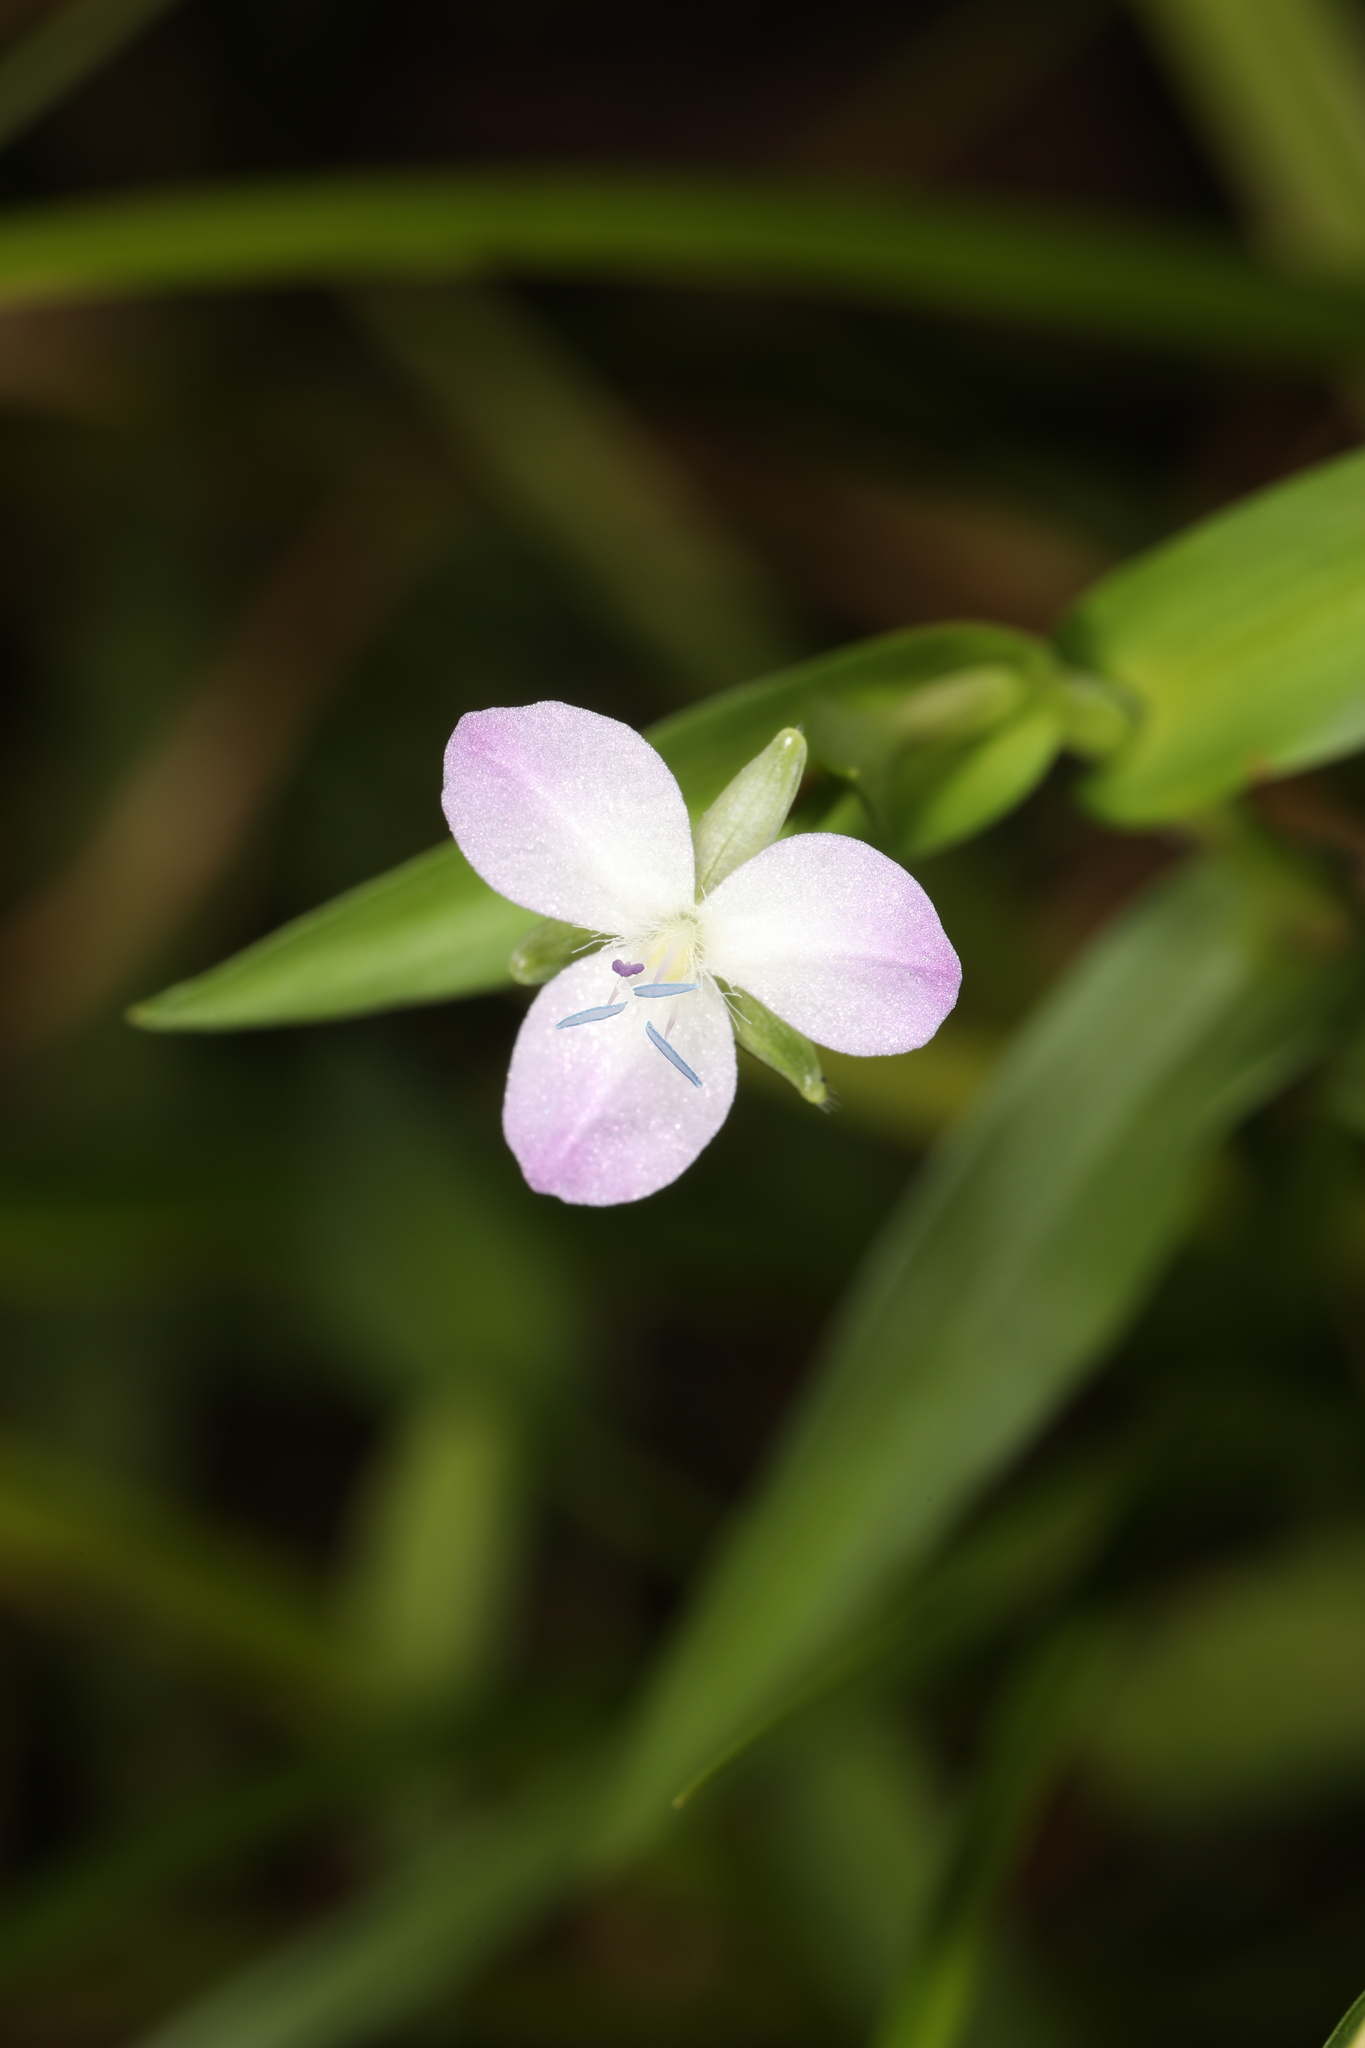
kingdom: Plantae
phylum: Tracheophyta
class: Liliopsida
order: Commelinales
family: Commelinaceae
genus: Murdannia
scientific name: Murdannia keisak
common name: Wartremoving herb
